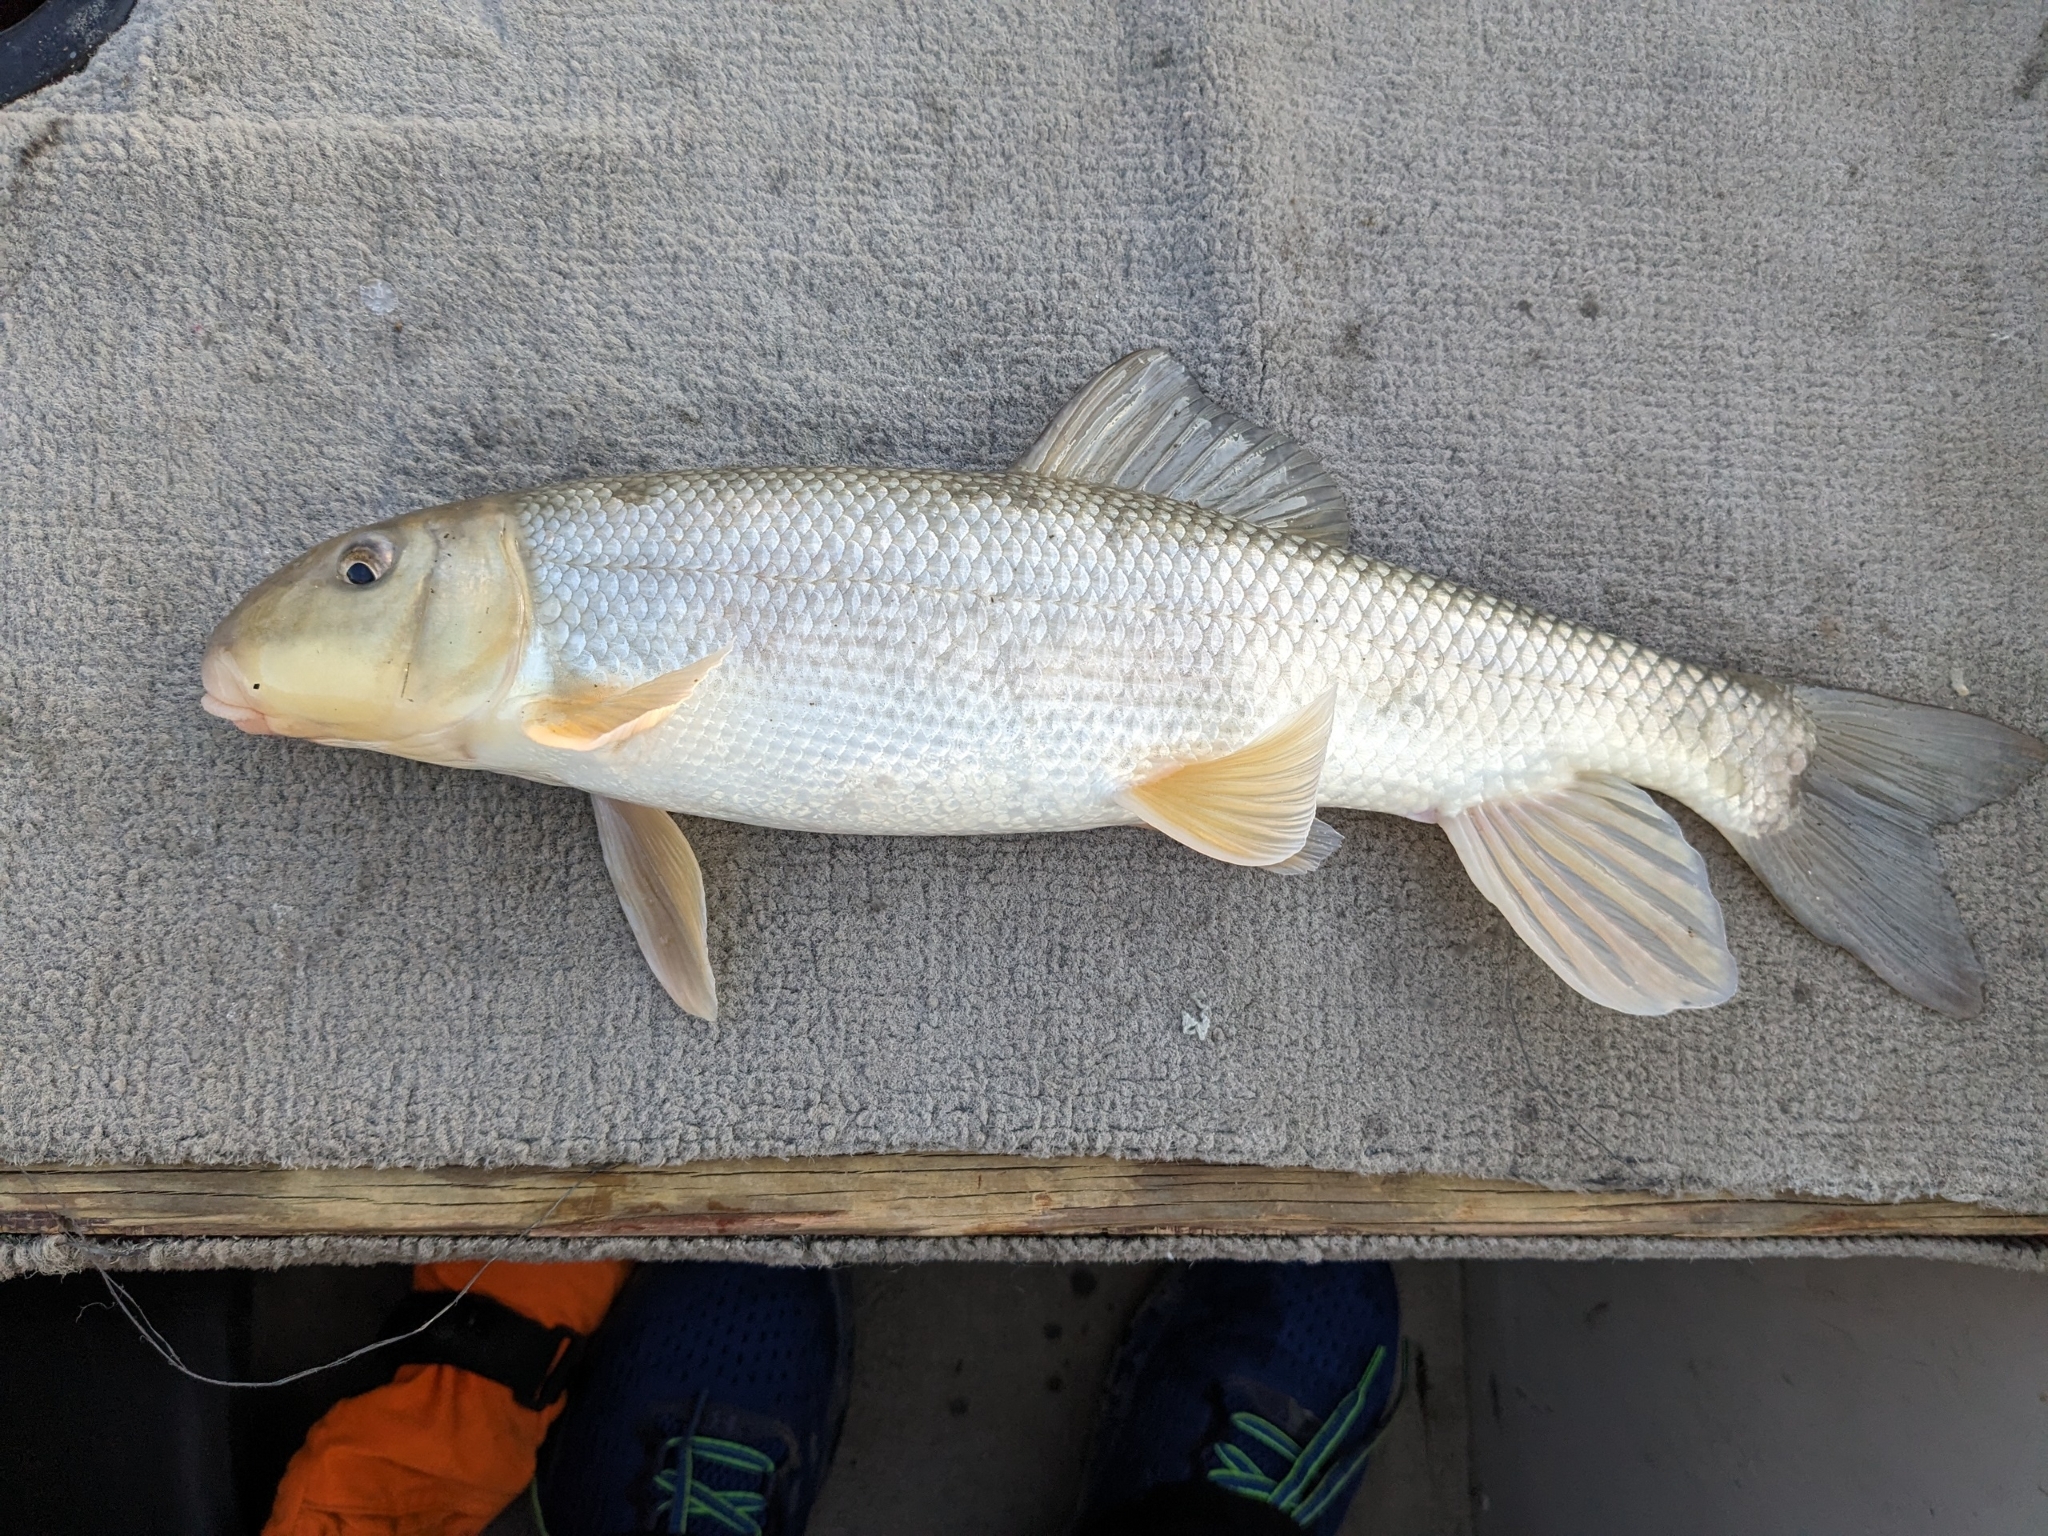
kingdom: Animalia
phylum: Chordata
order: Cypriniformes
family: Catostomidae
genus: Catostomus
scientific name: Catostomus commersonii
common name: White sucker
